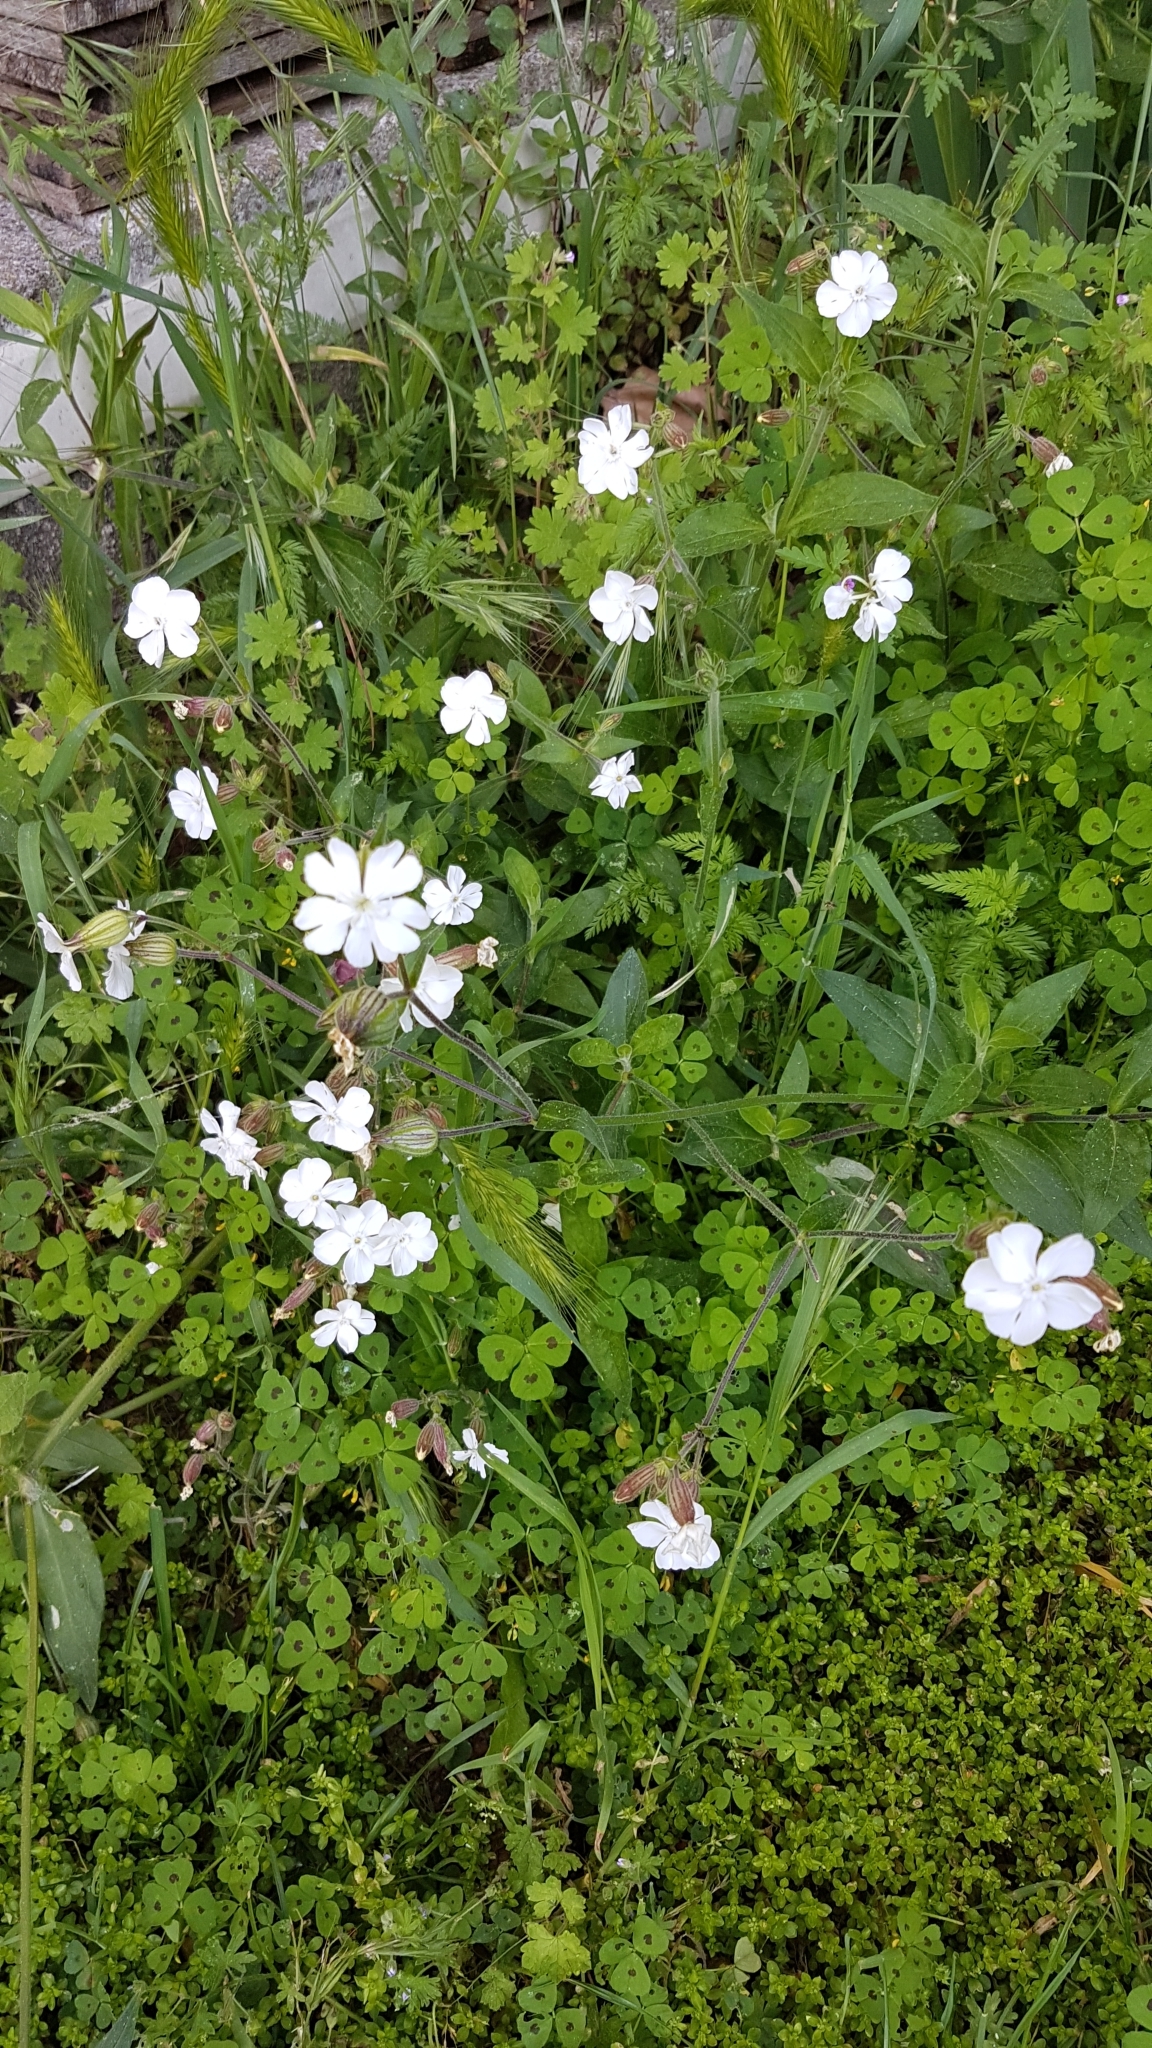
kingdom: Plantae
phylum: Tracheophyta
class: Magnoliopsida
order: Caryophyllales
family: Caryophyllaceae
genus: Silene
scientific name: Silene latifolia
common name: White campion
